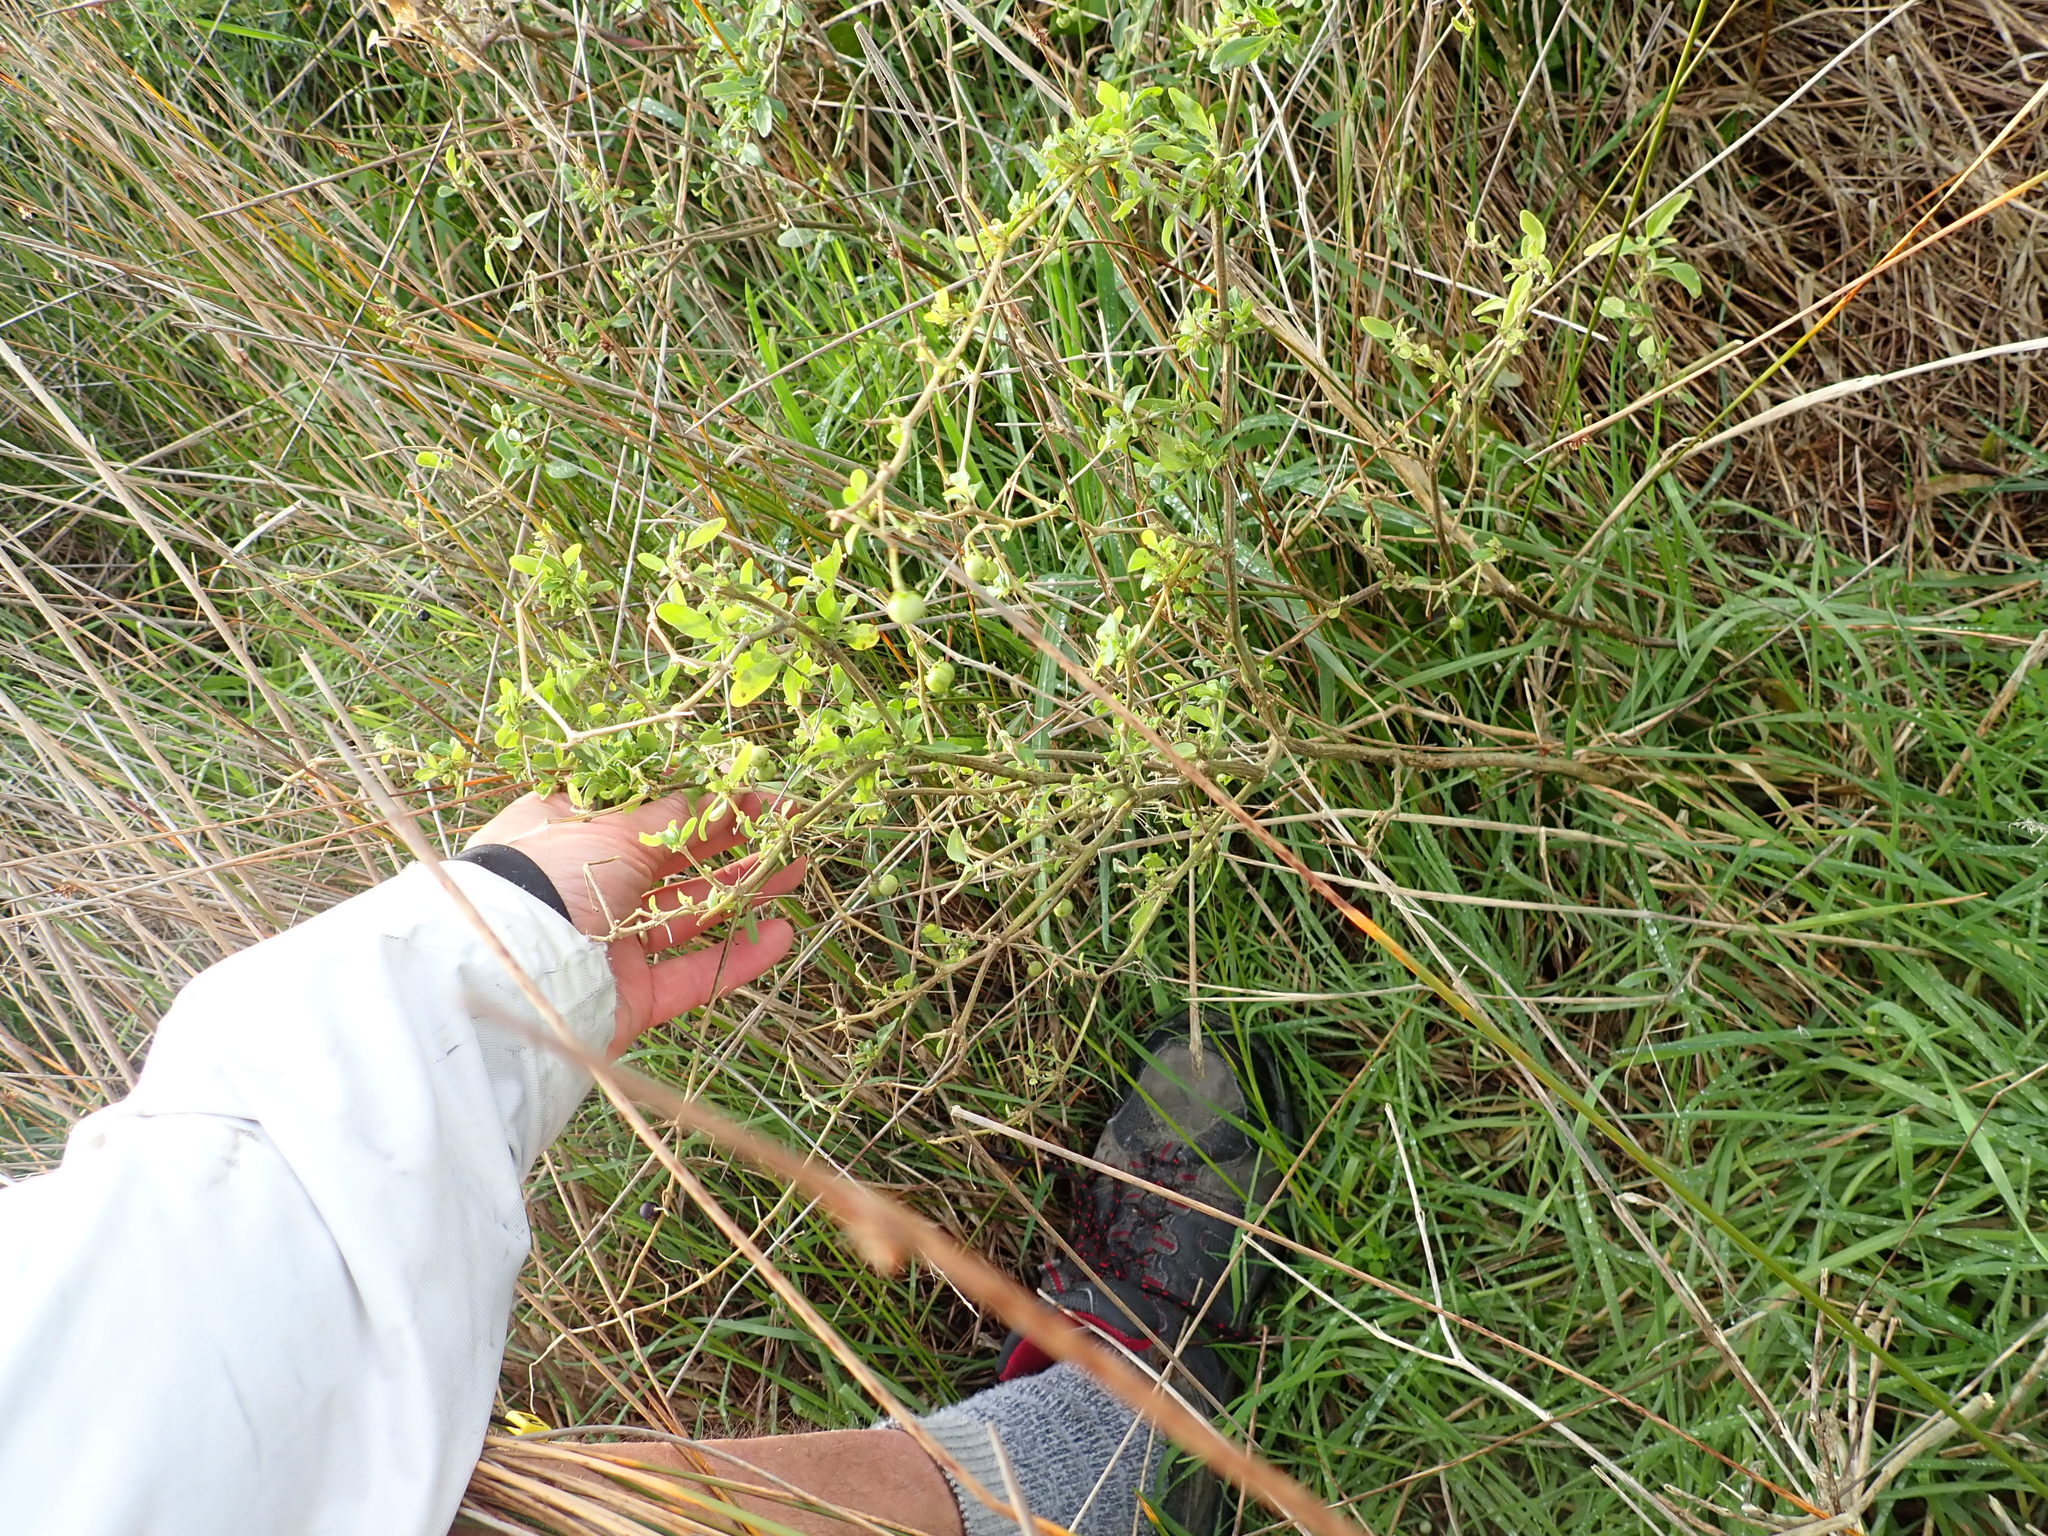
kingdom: Plantae
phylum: Tracheophyta
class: Magnoliopsida
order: Solanales
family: Solanaceae
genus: Solanum
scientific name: Solanum chenopodioides
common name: Tall nightshade
